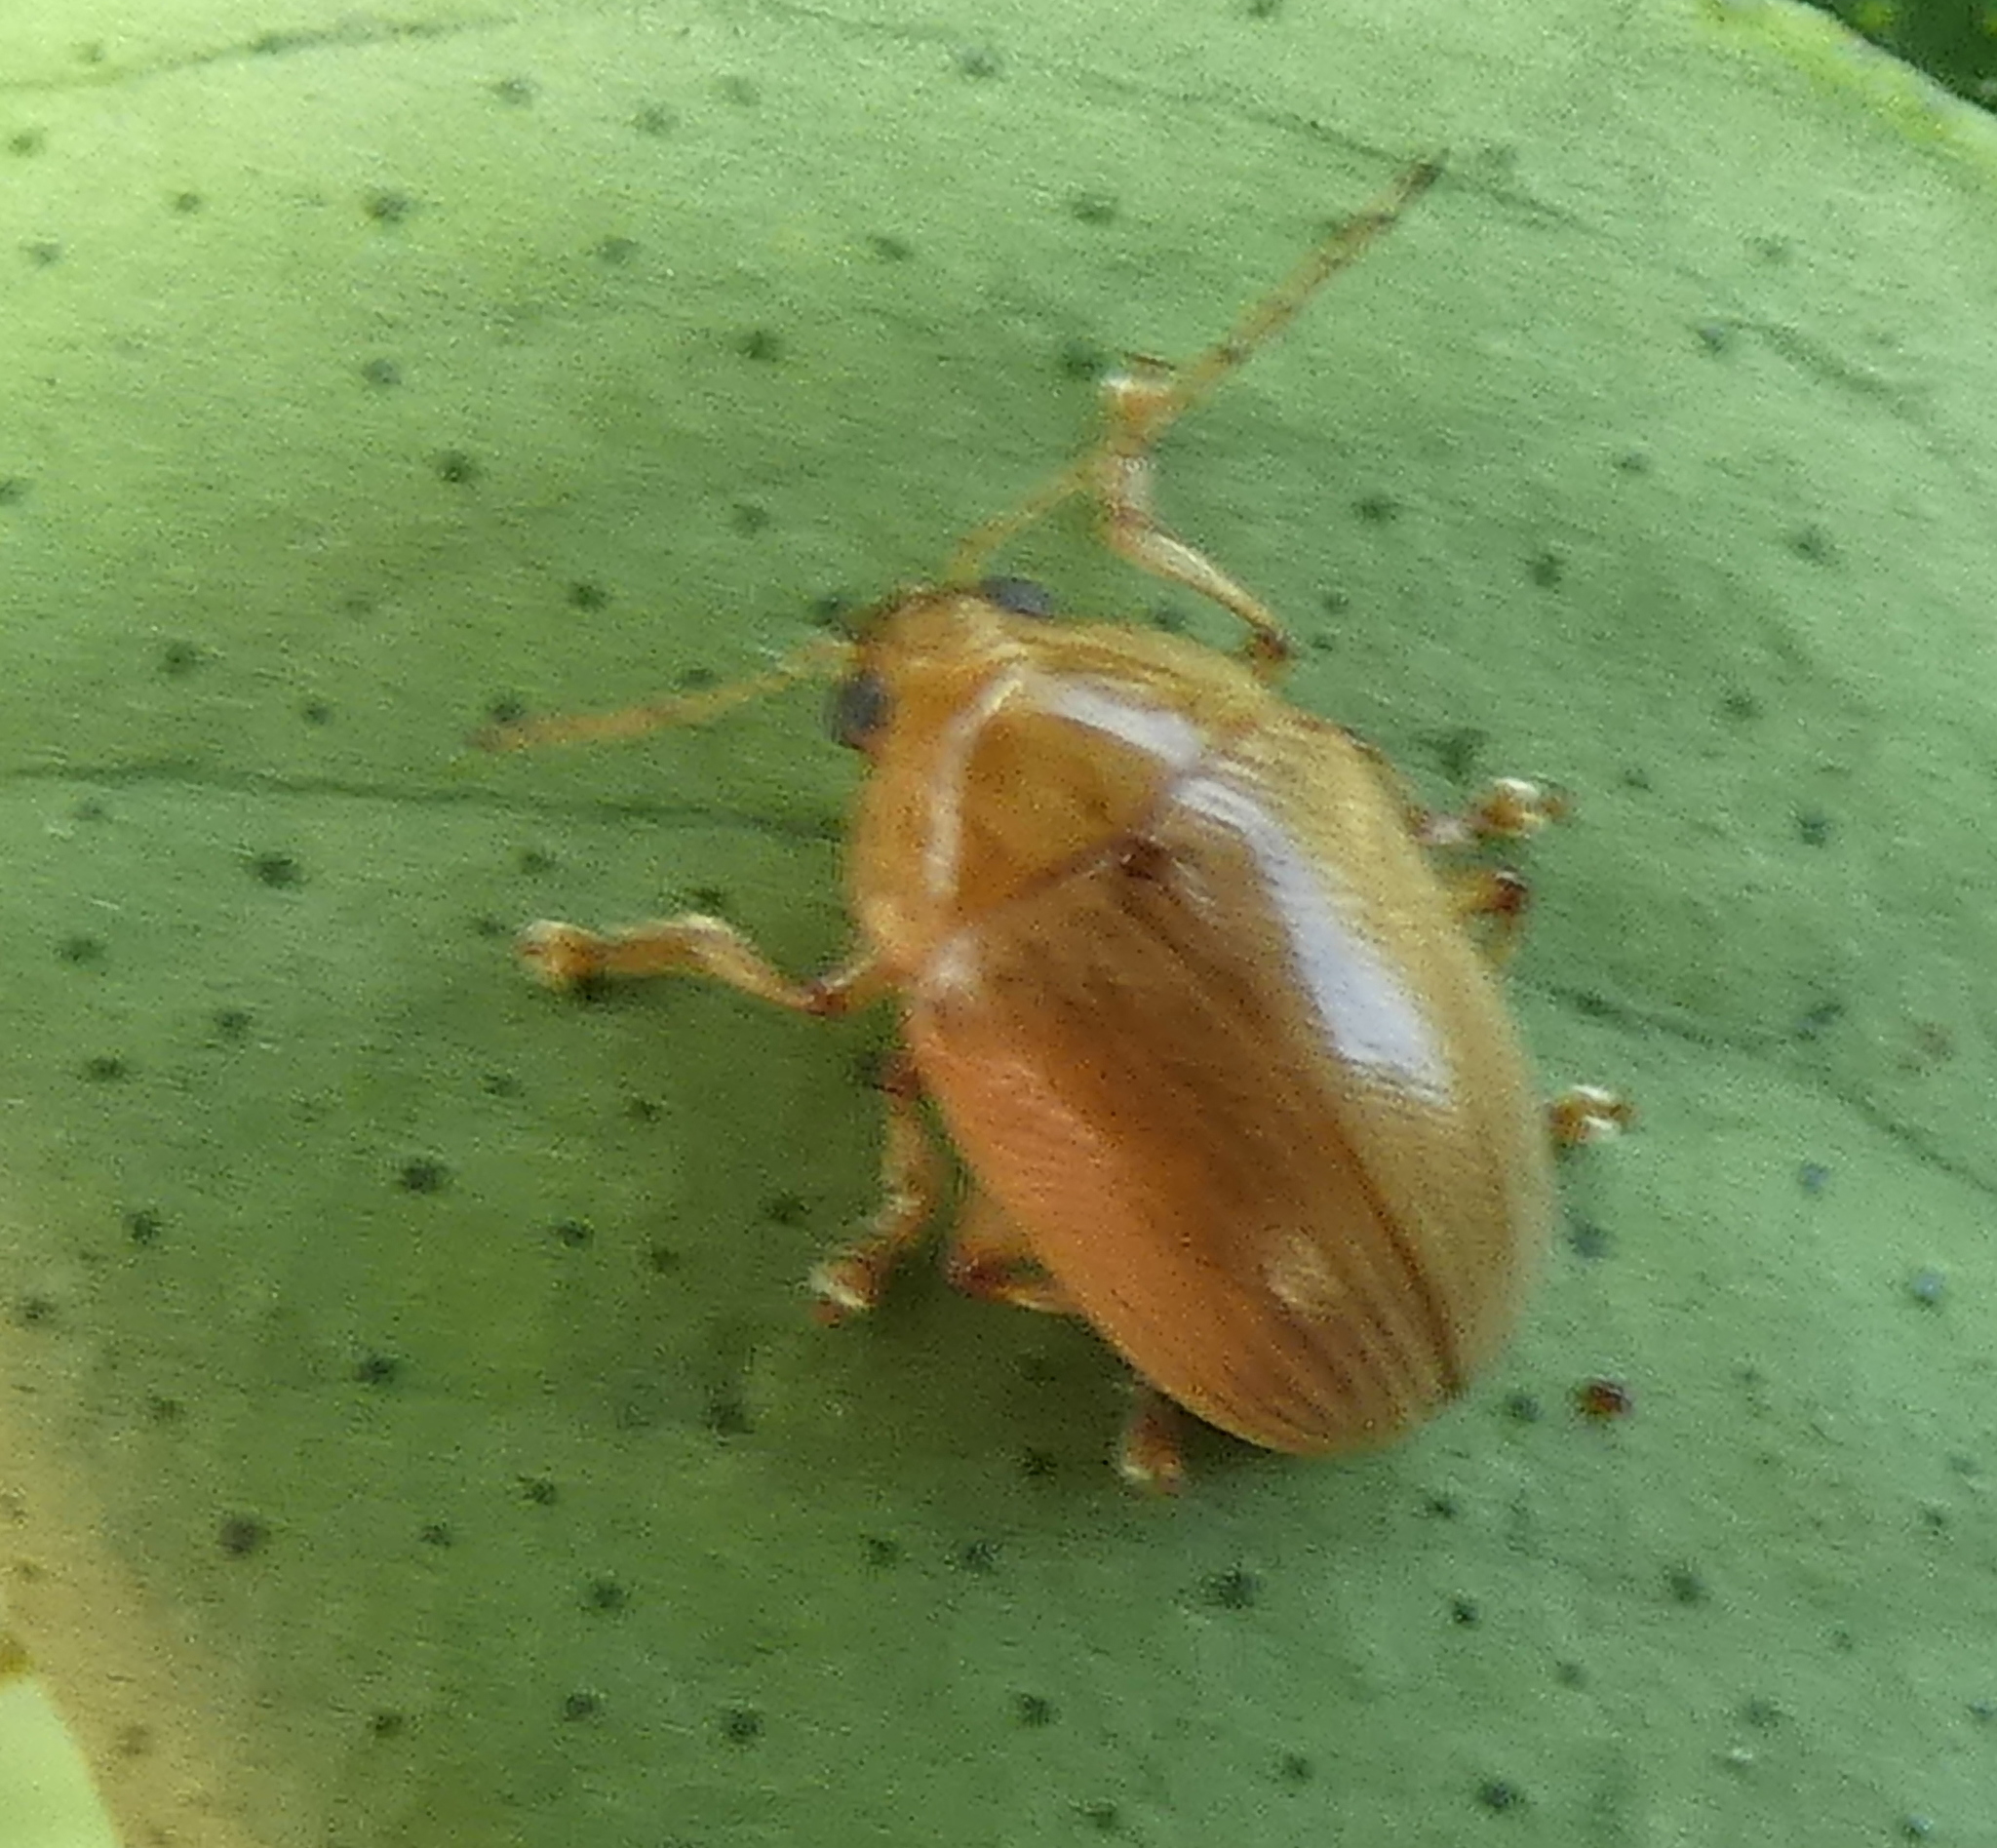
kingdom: Animalia
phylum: Arthropoda
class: Insecta
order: Coleoptera
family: Chrysomelidae
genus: Anisodera
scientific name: Anisodera ferruginea
